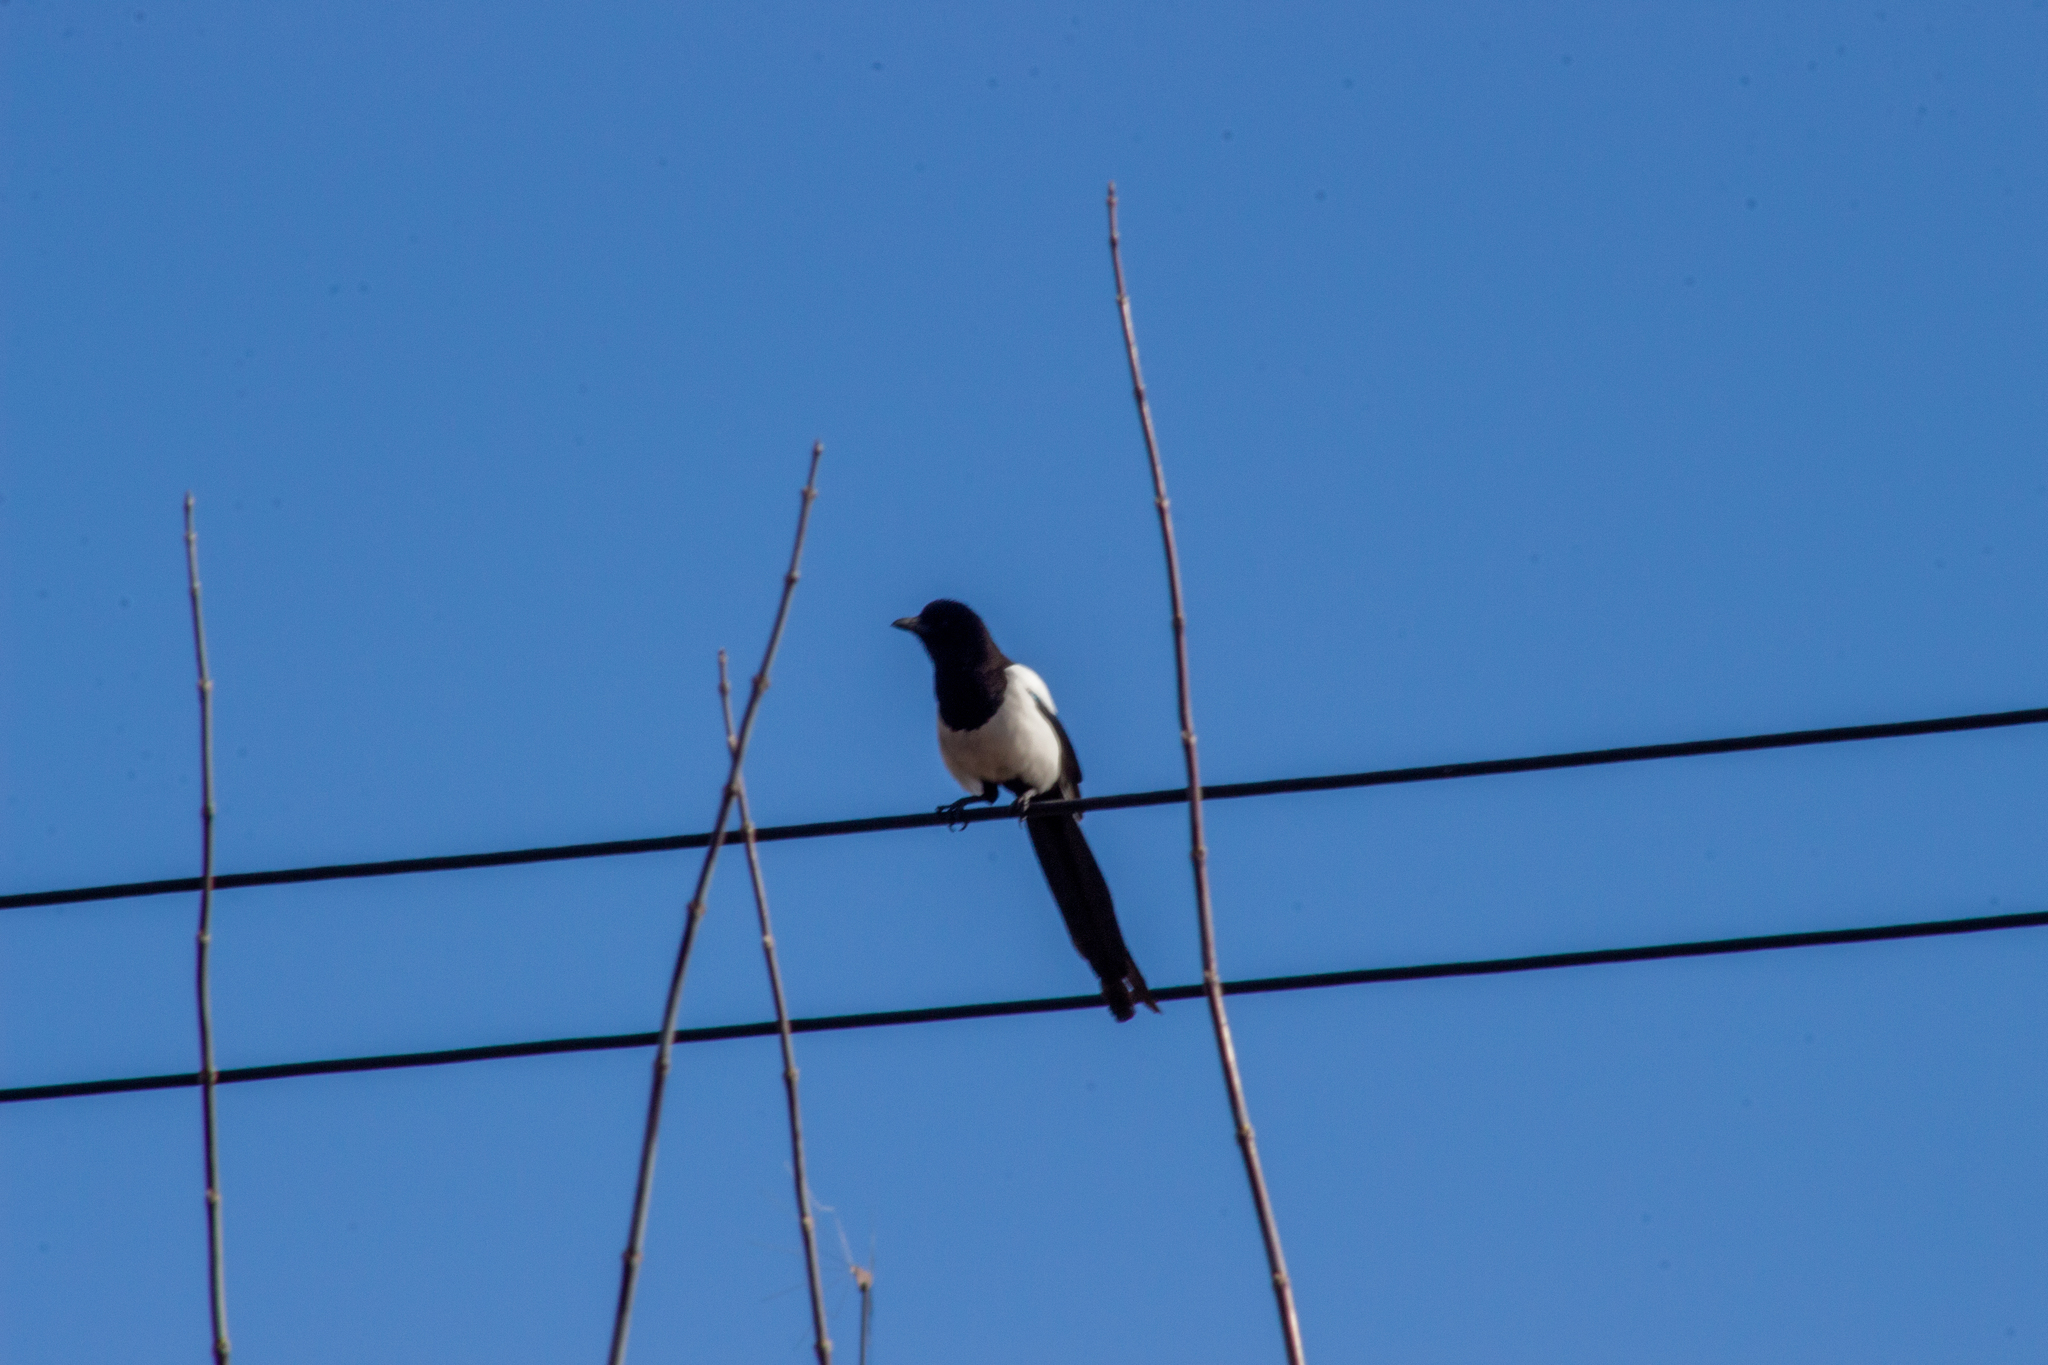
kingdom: Animalia
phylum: Chordata
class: Aves
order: Passeriformes
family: Corvidae
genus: Pica
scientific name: Pica pica
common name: Eurasian magpie
